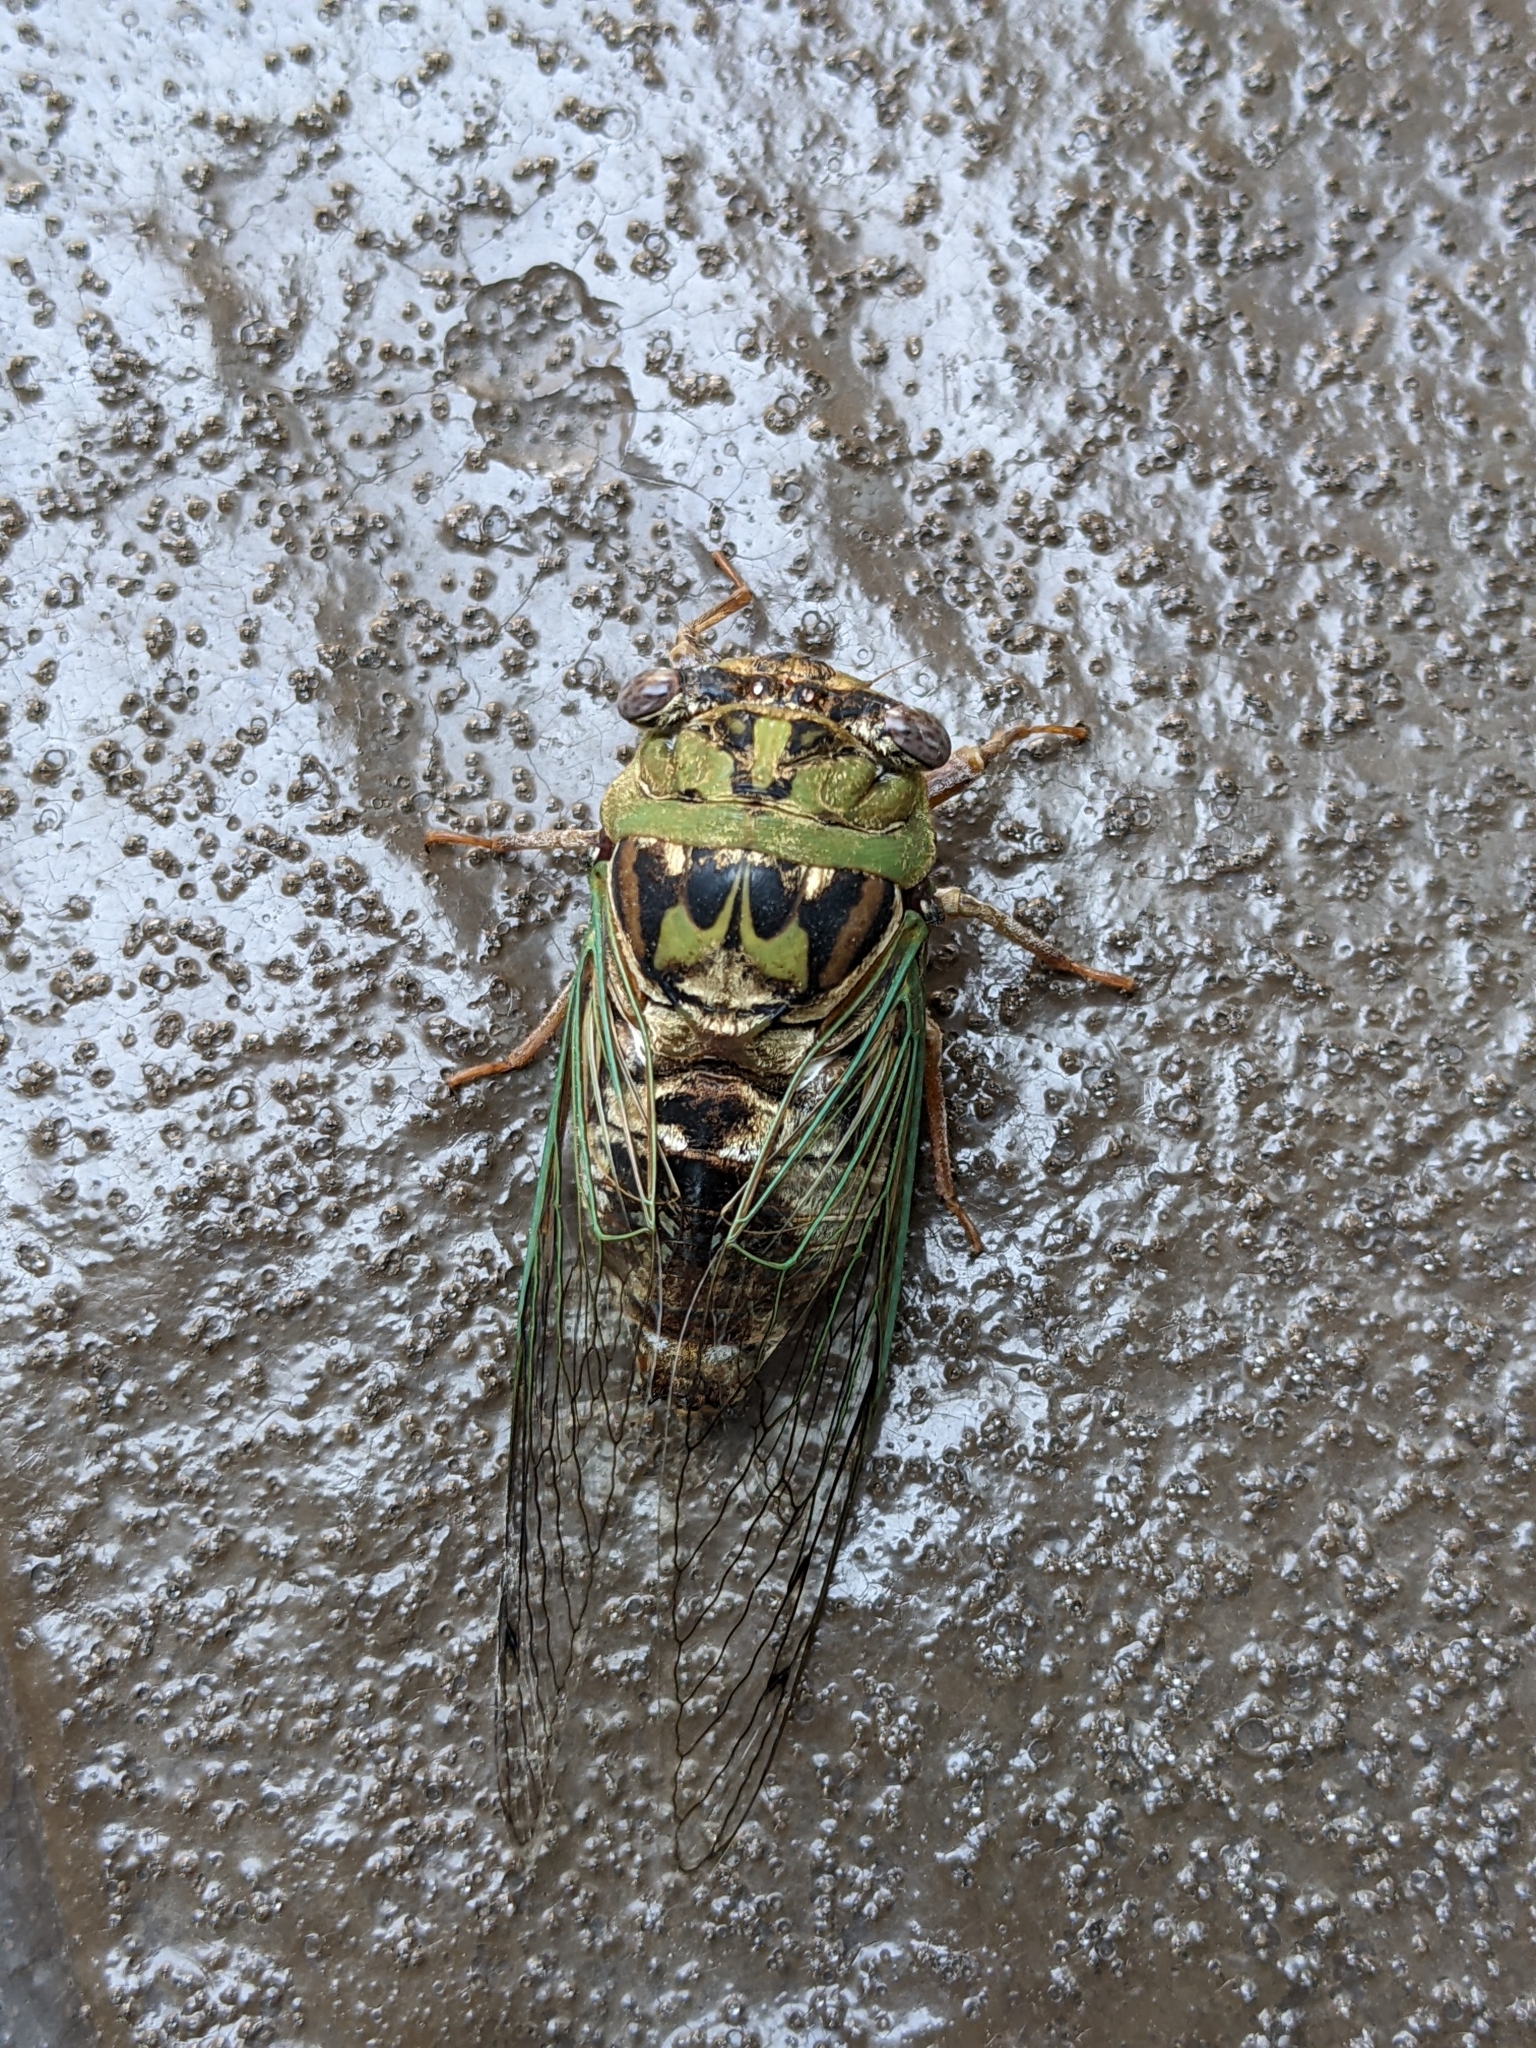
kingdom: Animalia
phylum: Arthropoda
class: Insecta
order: Hemiptera
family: Cicadidae
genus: Megatibicen
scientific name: Megatibicen resh
